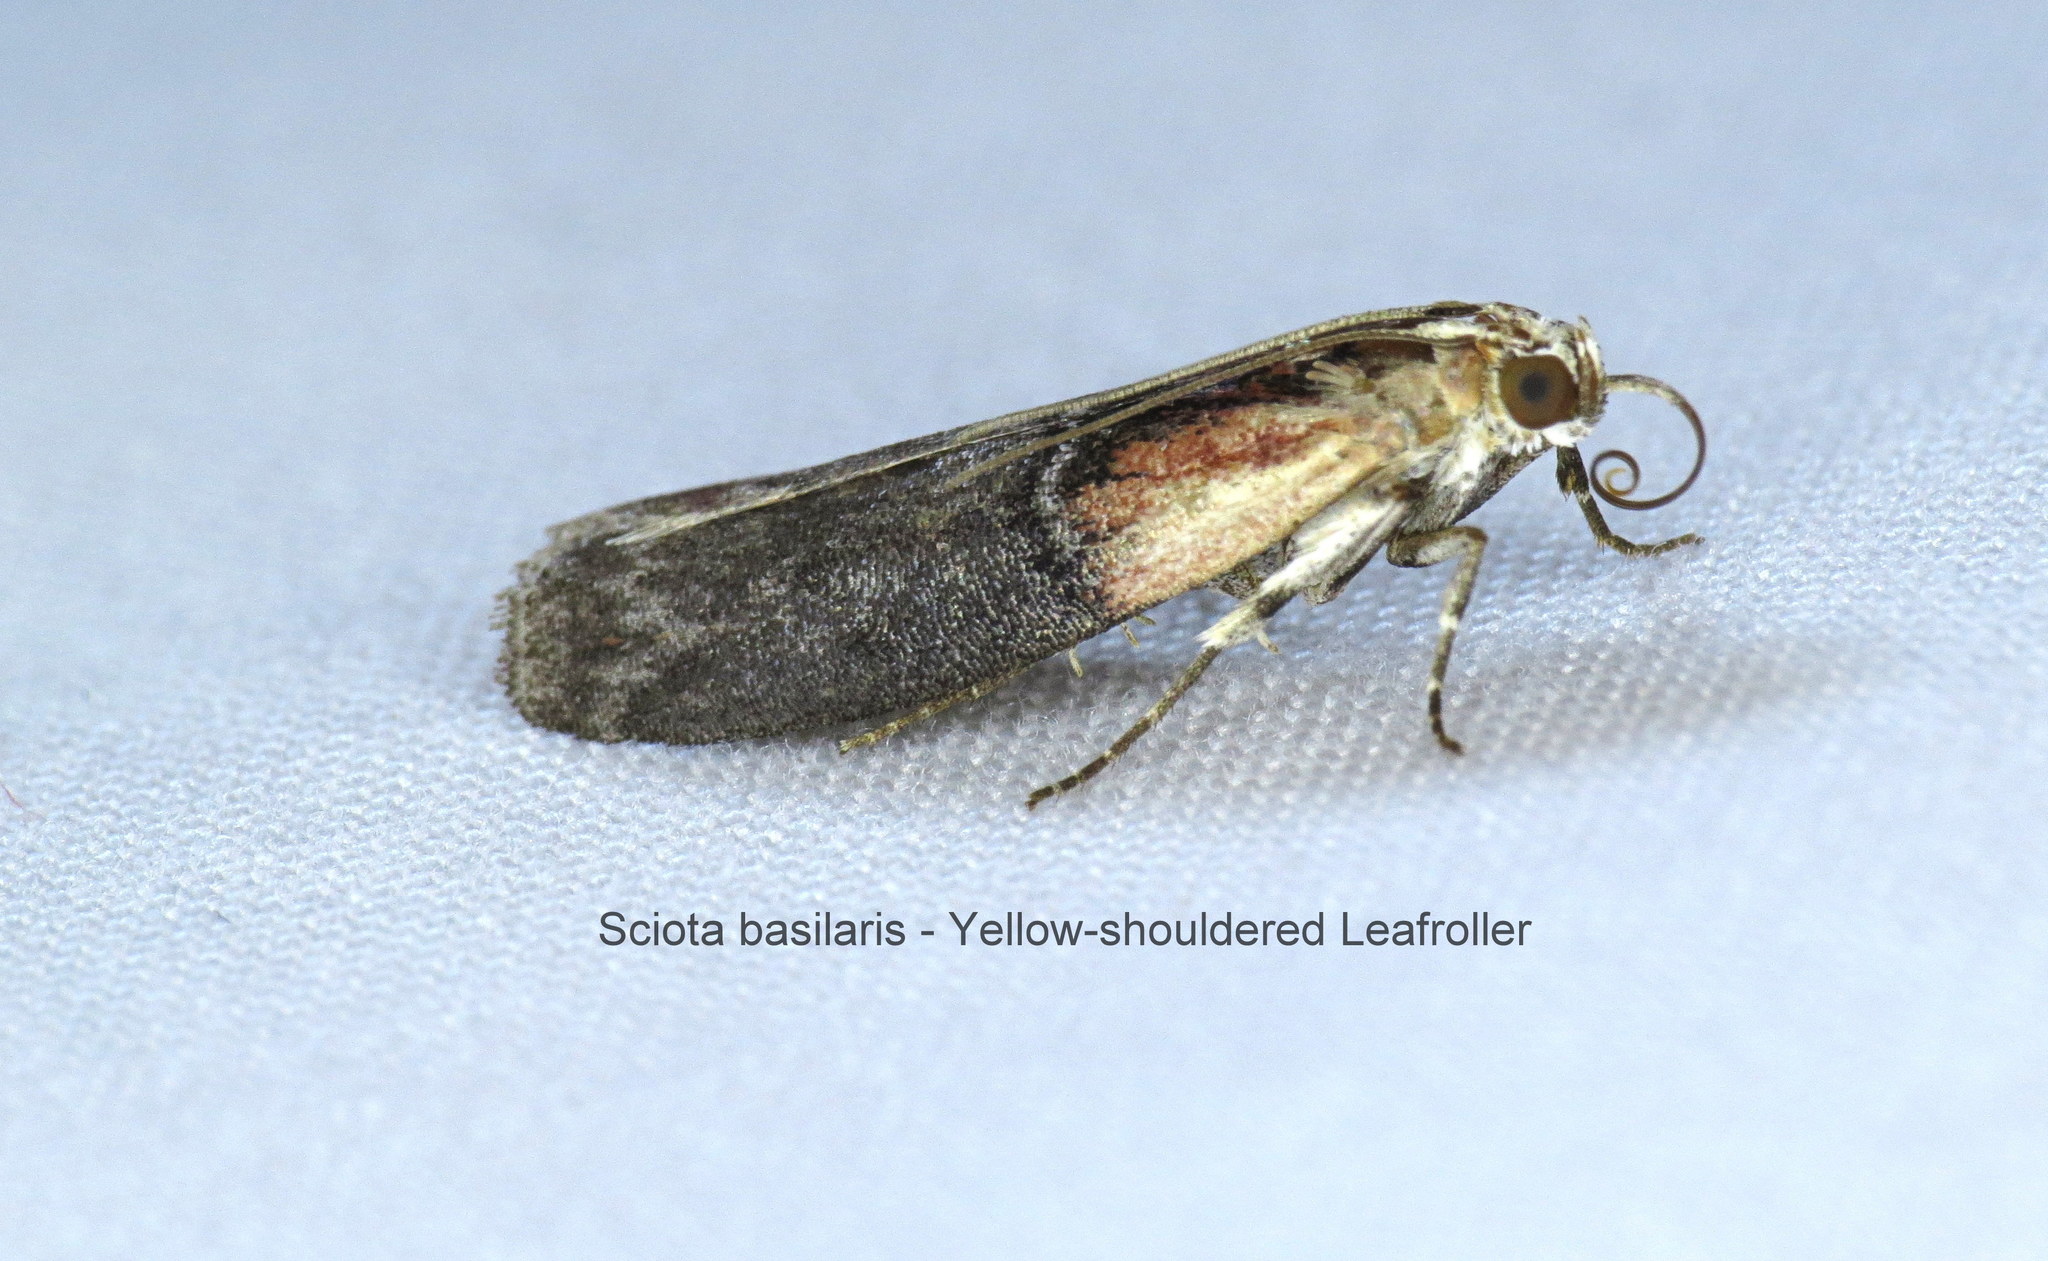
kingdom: Animalia
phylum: Arthropoda
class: Insecta
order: Lepidoptera
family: Pyralidae
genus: Sciota
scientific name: Sciota basilaris
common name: Yellow-shouldered leafroller
